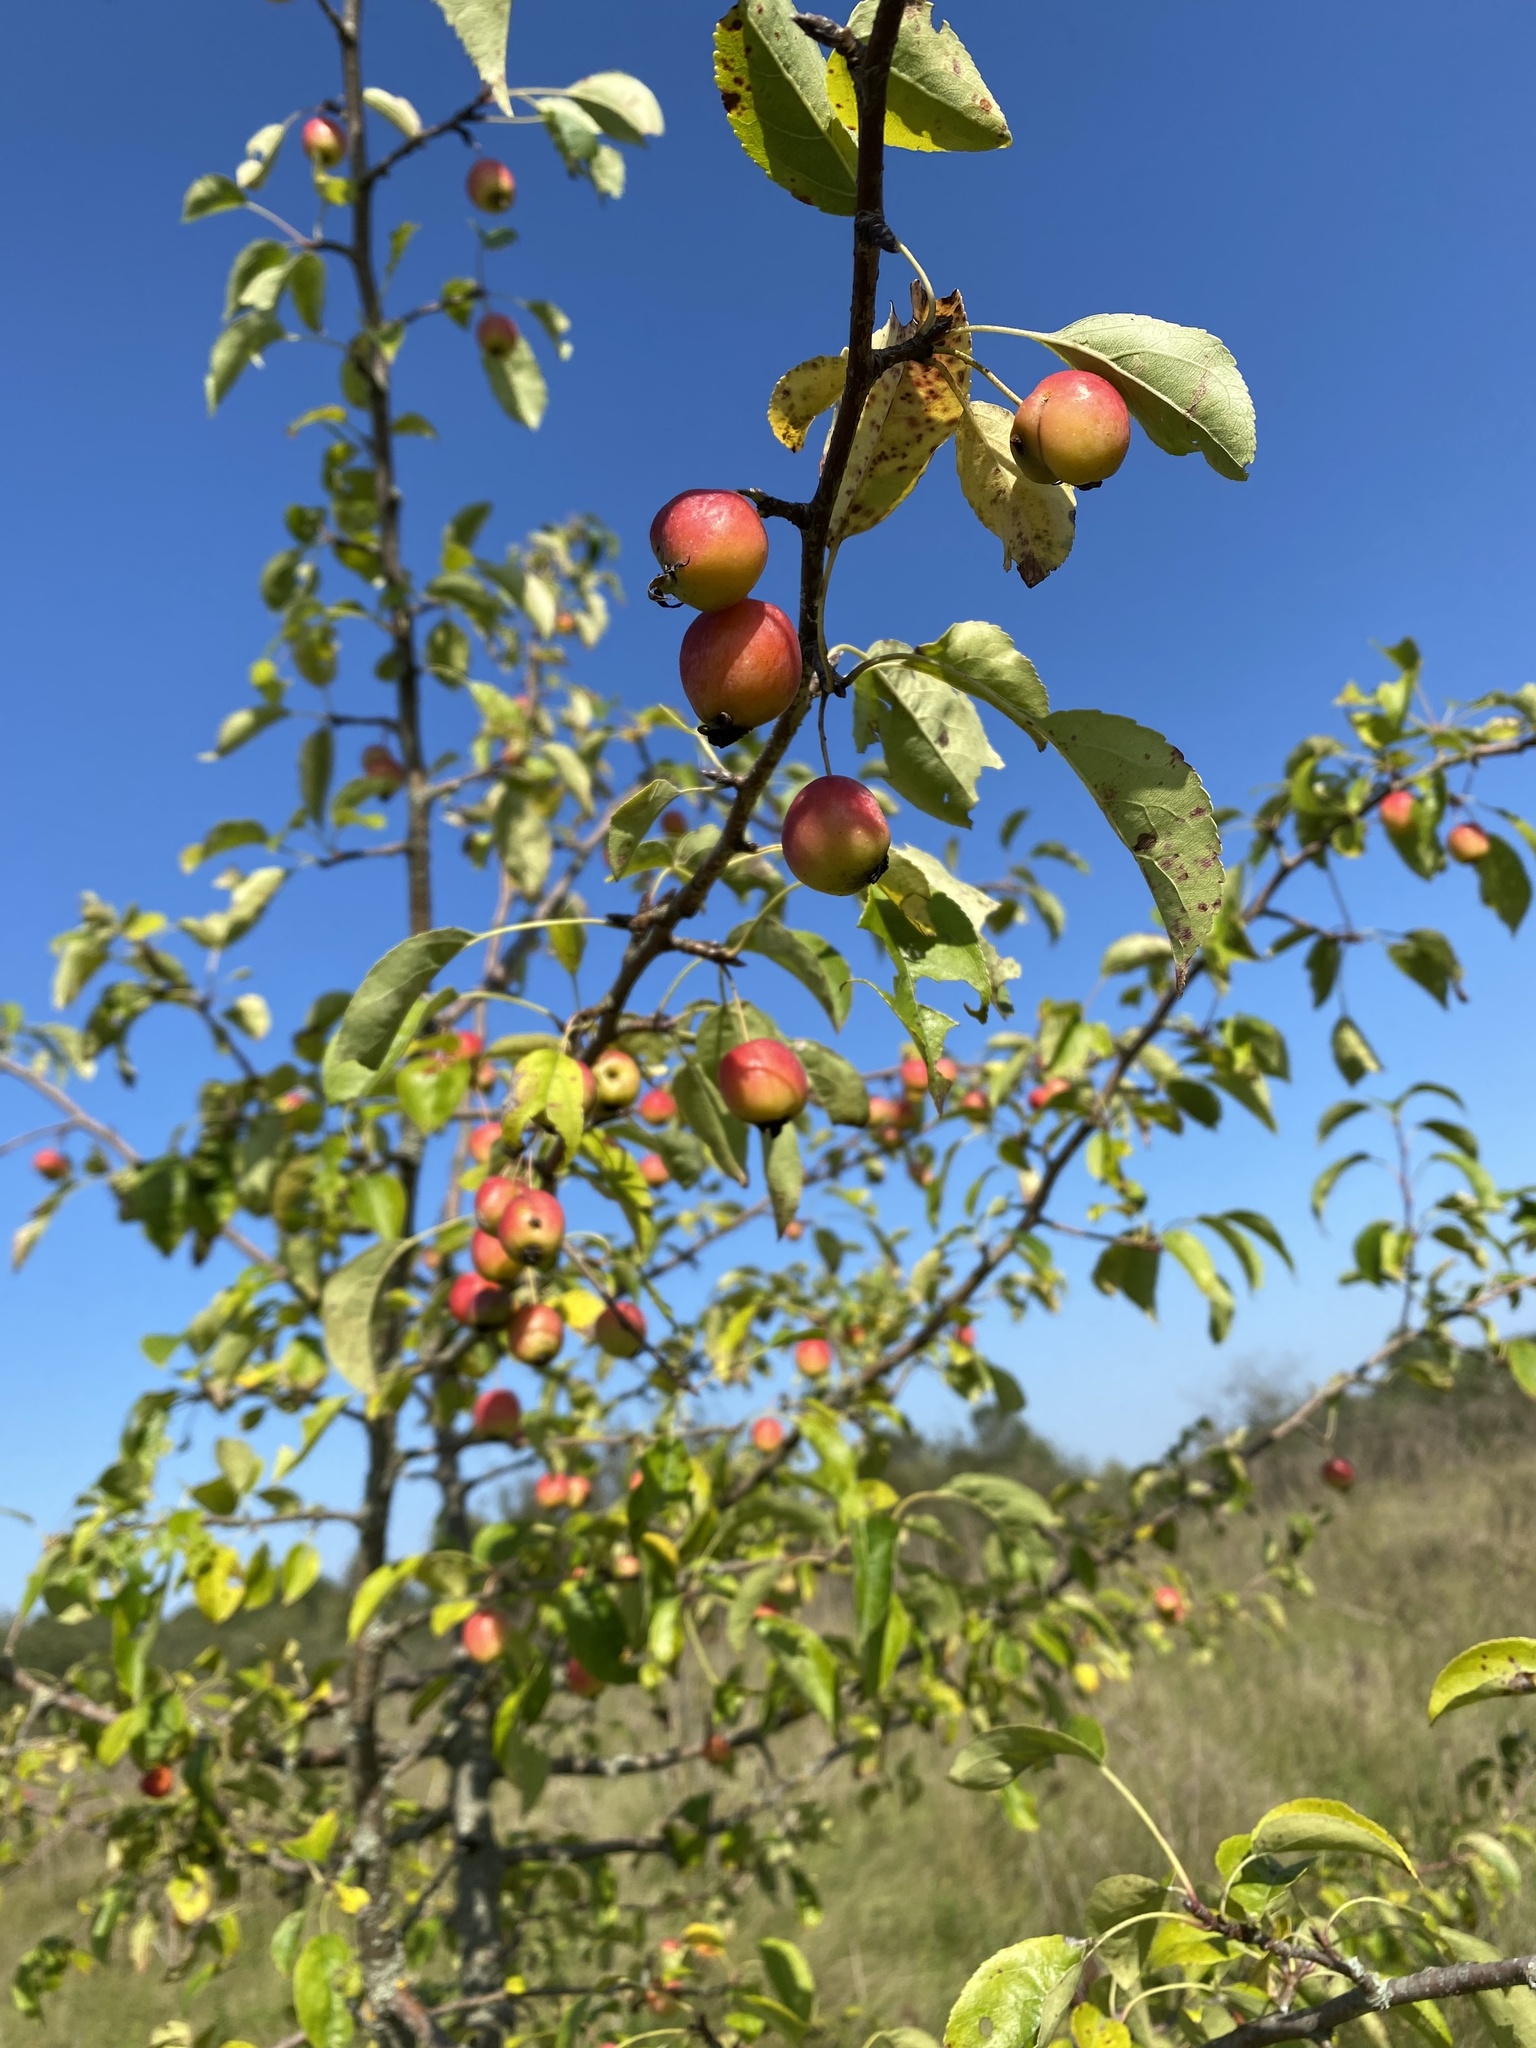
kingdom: Plantae
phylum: Tracheophyta
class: Magnoliopsida
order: Rosales
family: Rosaceae
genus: Malus
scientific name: Malus sylvestris
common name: Crab apple
